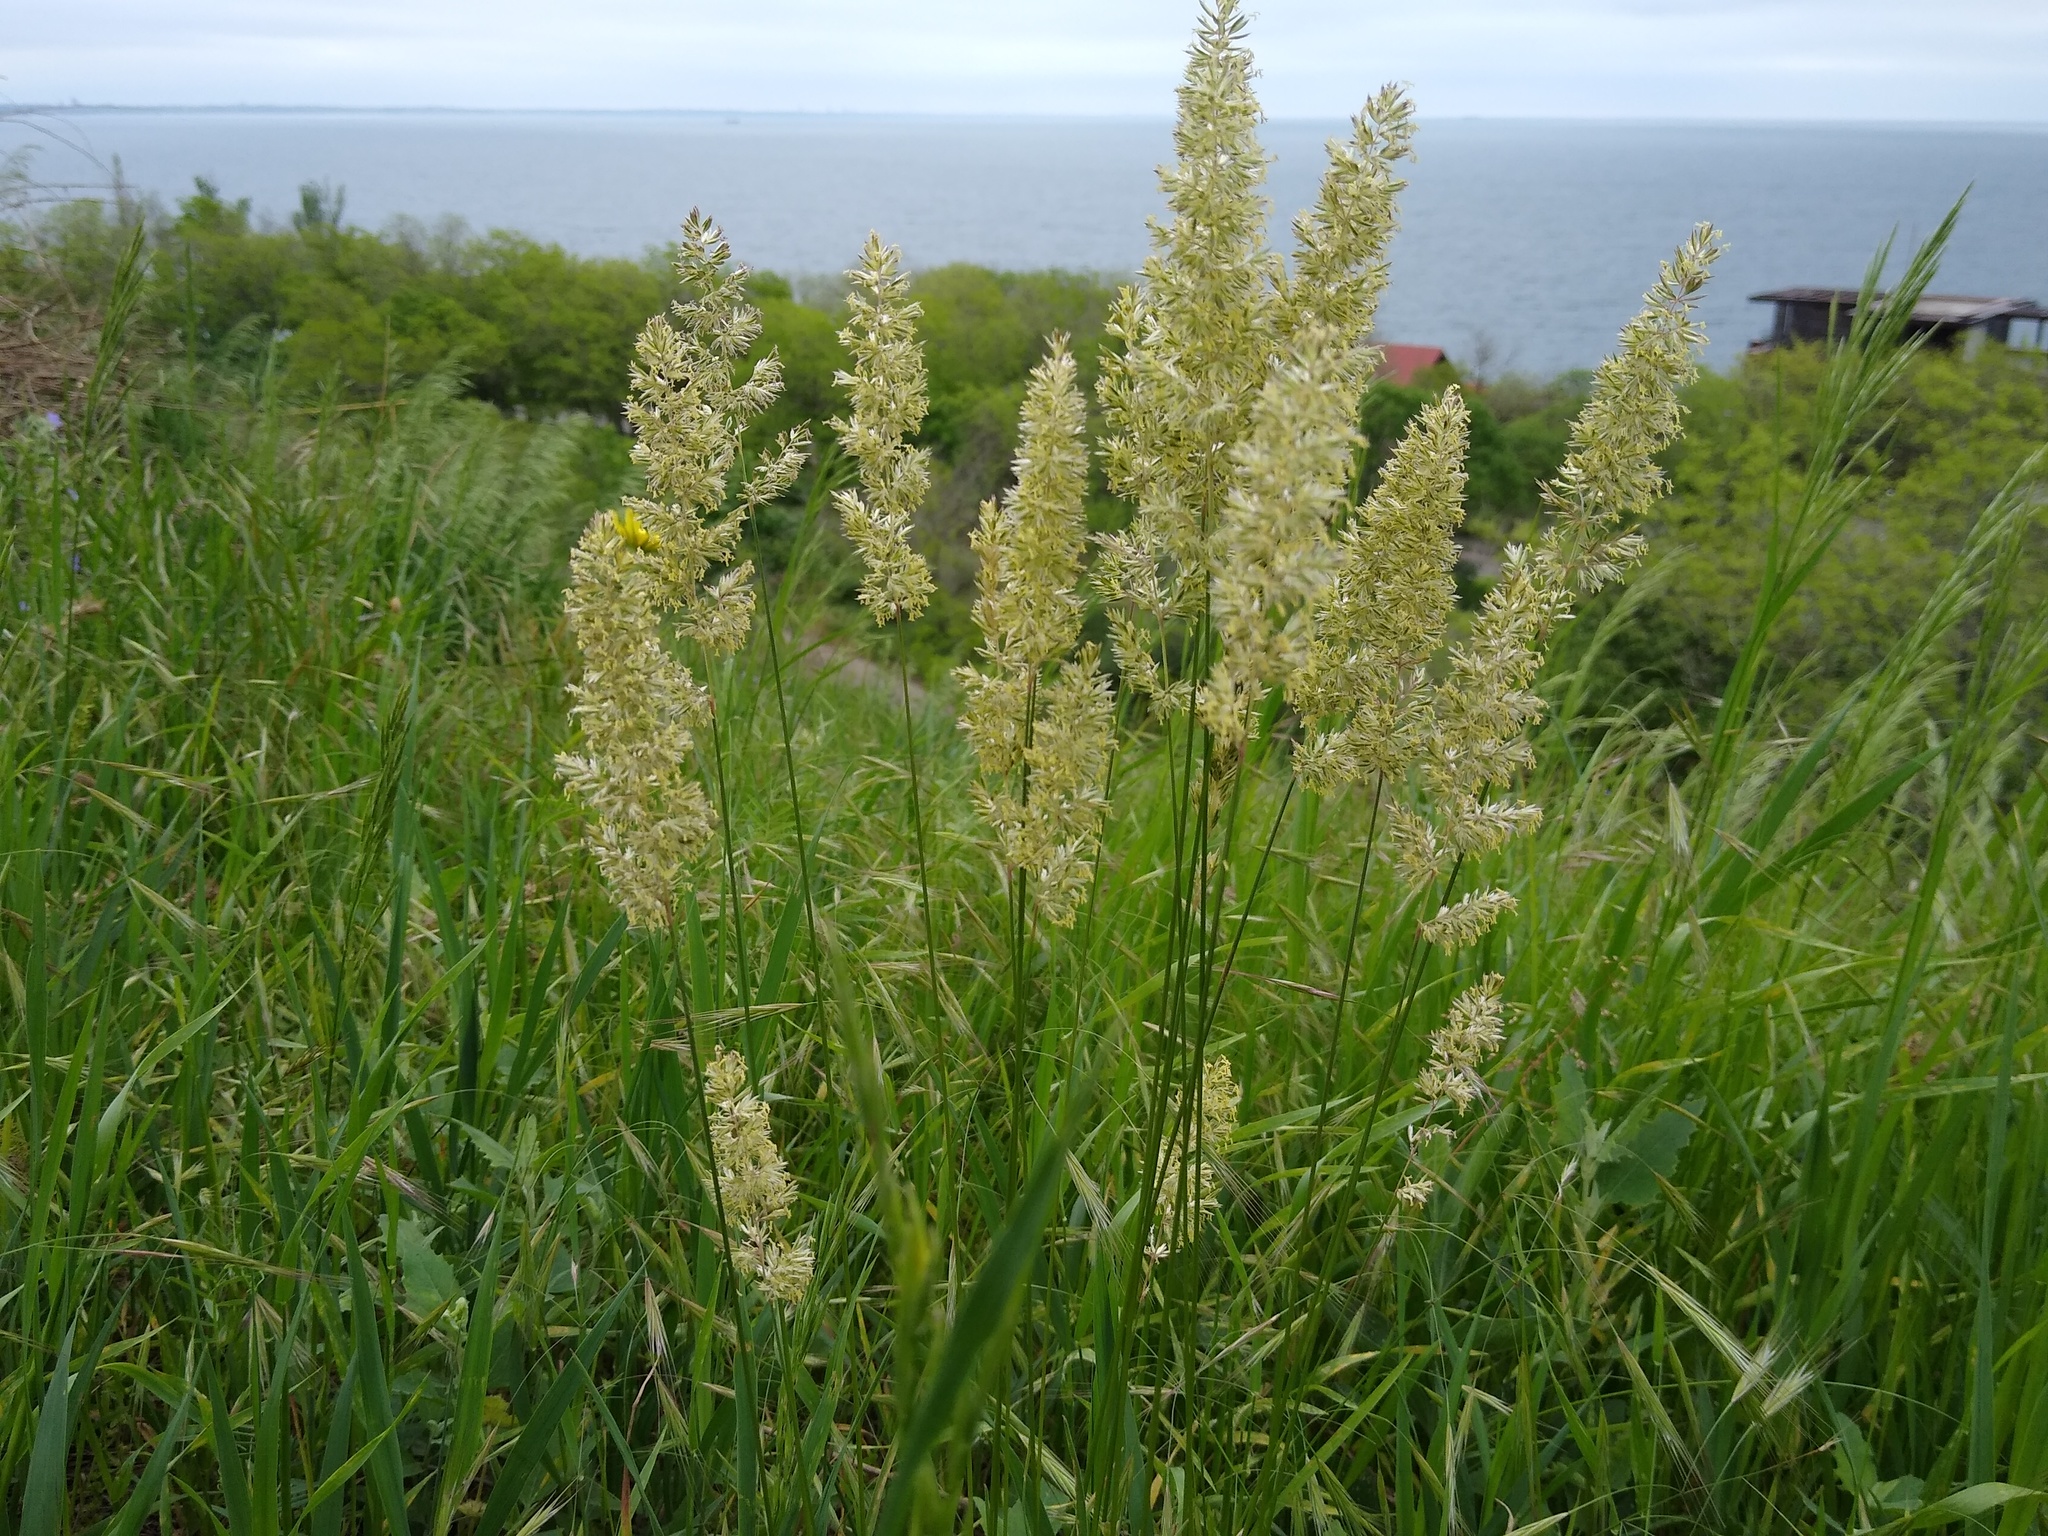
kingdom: Plantae
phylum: Tracheophyta
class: Liliopsida
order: Poales
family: Poaceae
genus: Koeleria
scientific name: Koeleria macrantha
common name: Crested hair-grass
